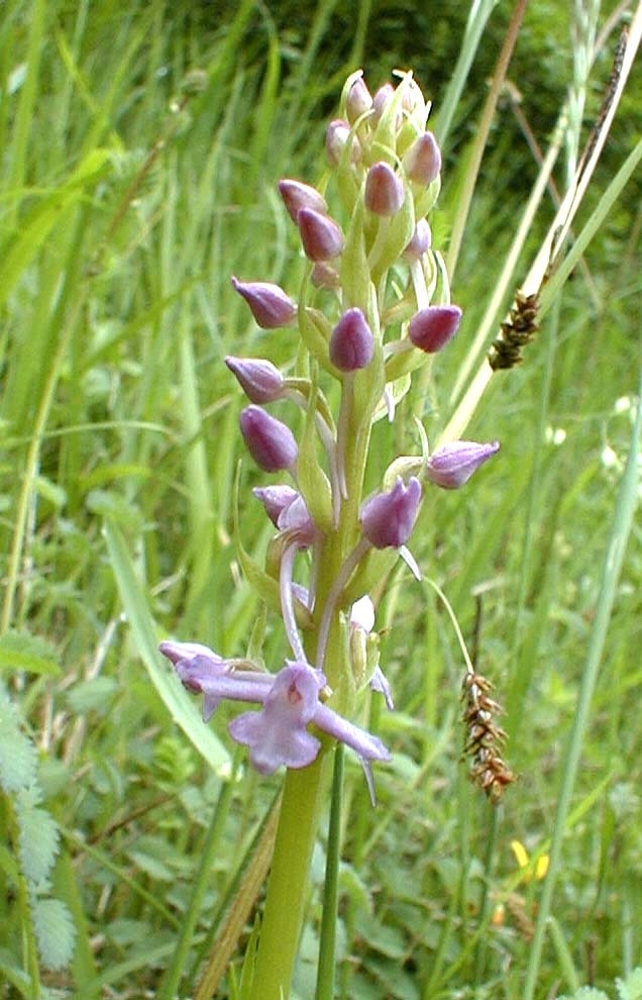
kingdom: Plantae
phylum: Tracheophyta
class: Liliopsida
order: Asparagales
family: Orchidaceae
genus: Gymnadenia
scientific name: Gymnadenia conopsea
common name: Fragrant orchid
